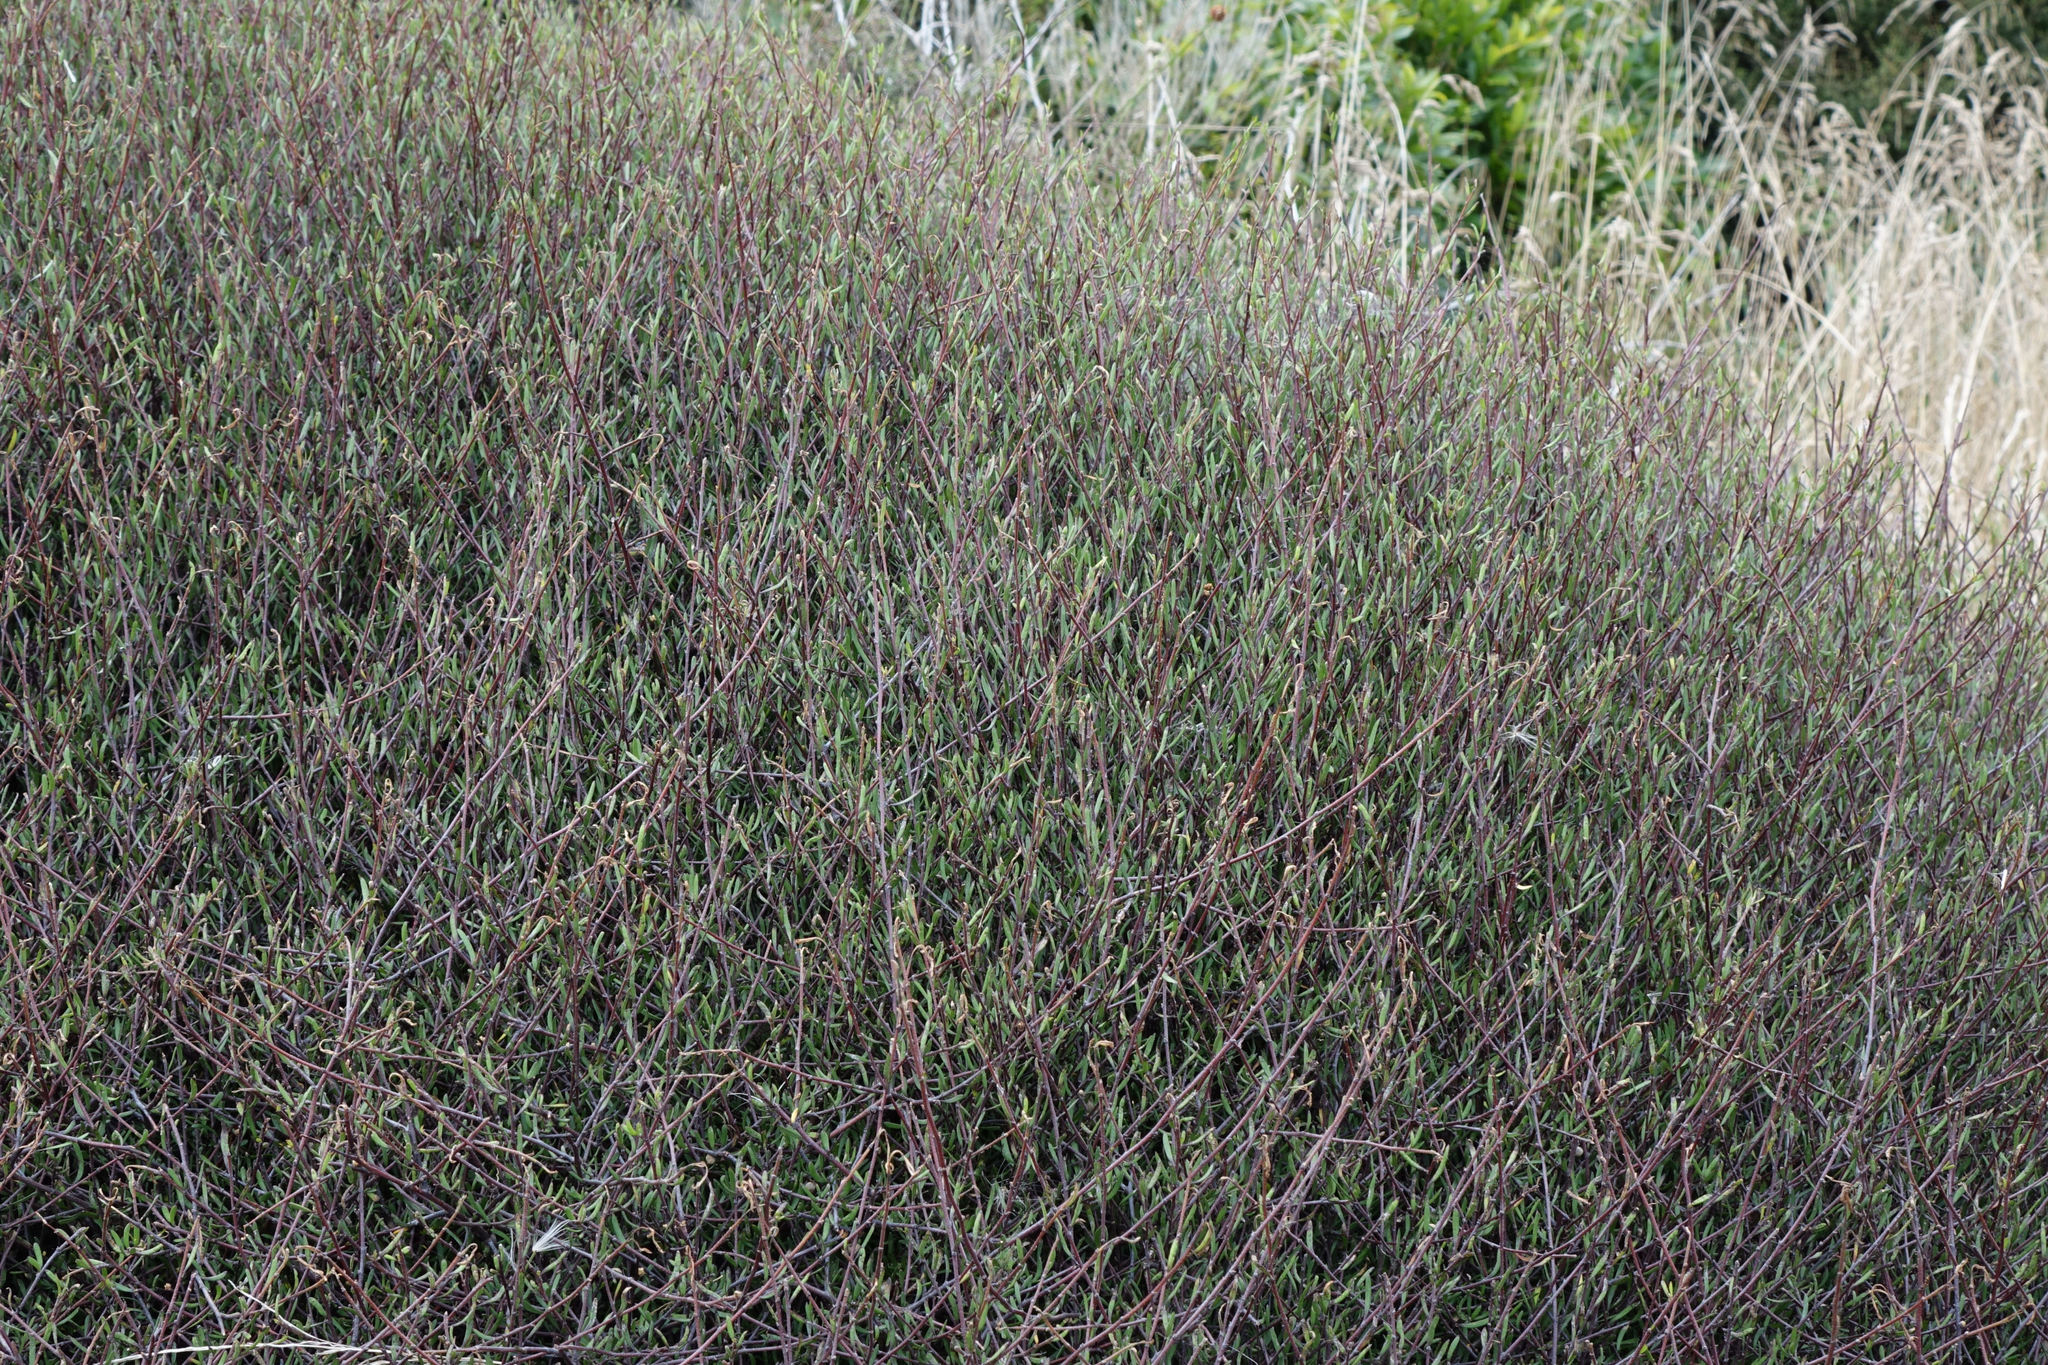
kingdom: Plantae
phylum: Tracheophyta
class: Magnoliopsida
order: Malvales
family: Malvaceae
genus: Plagianthus
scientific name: Plagianthus divaricatus
